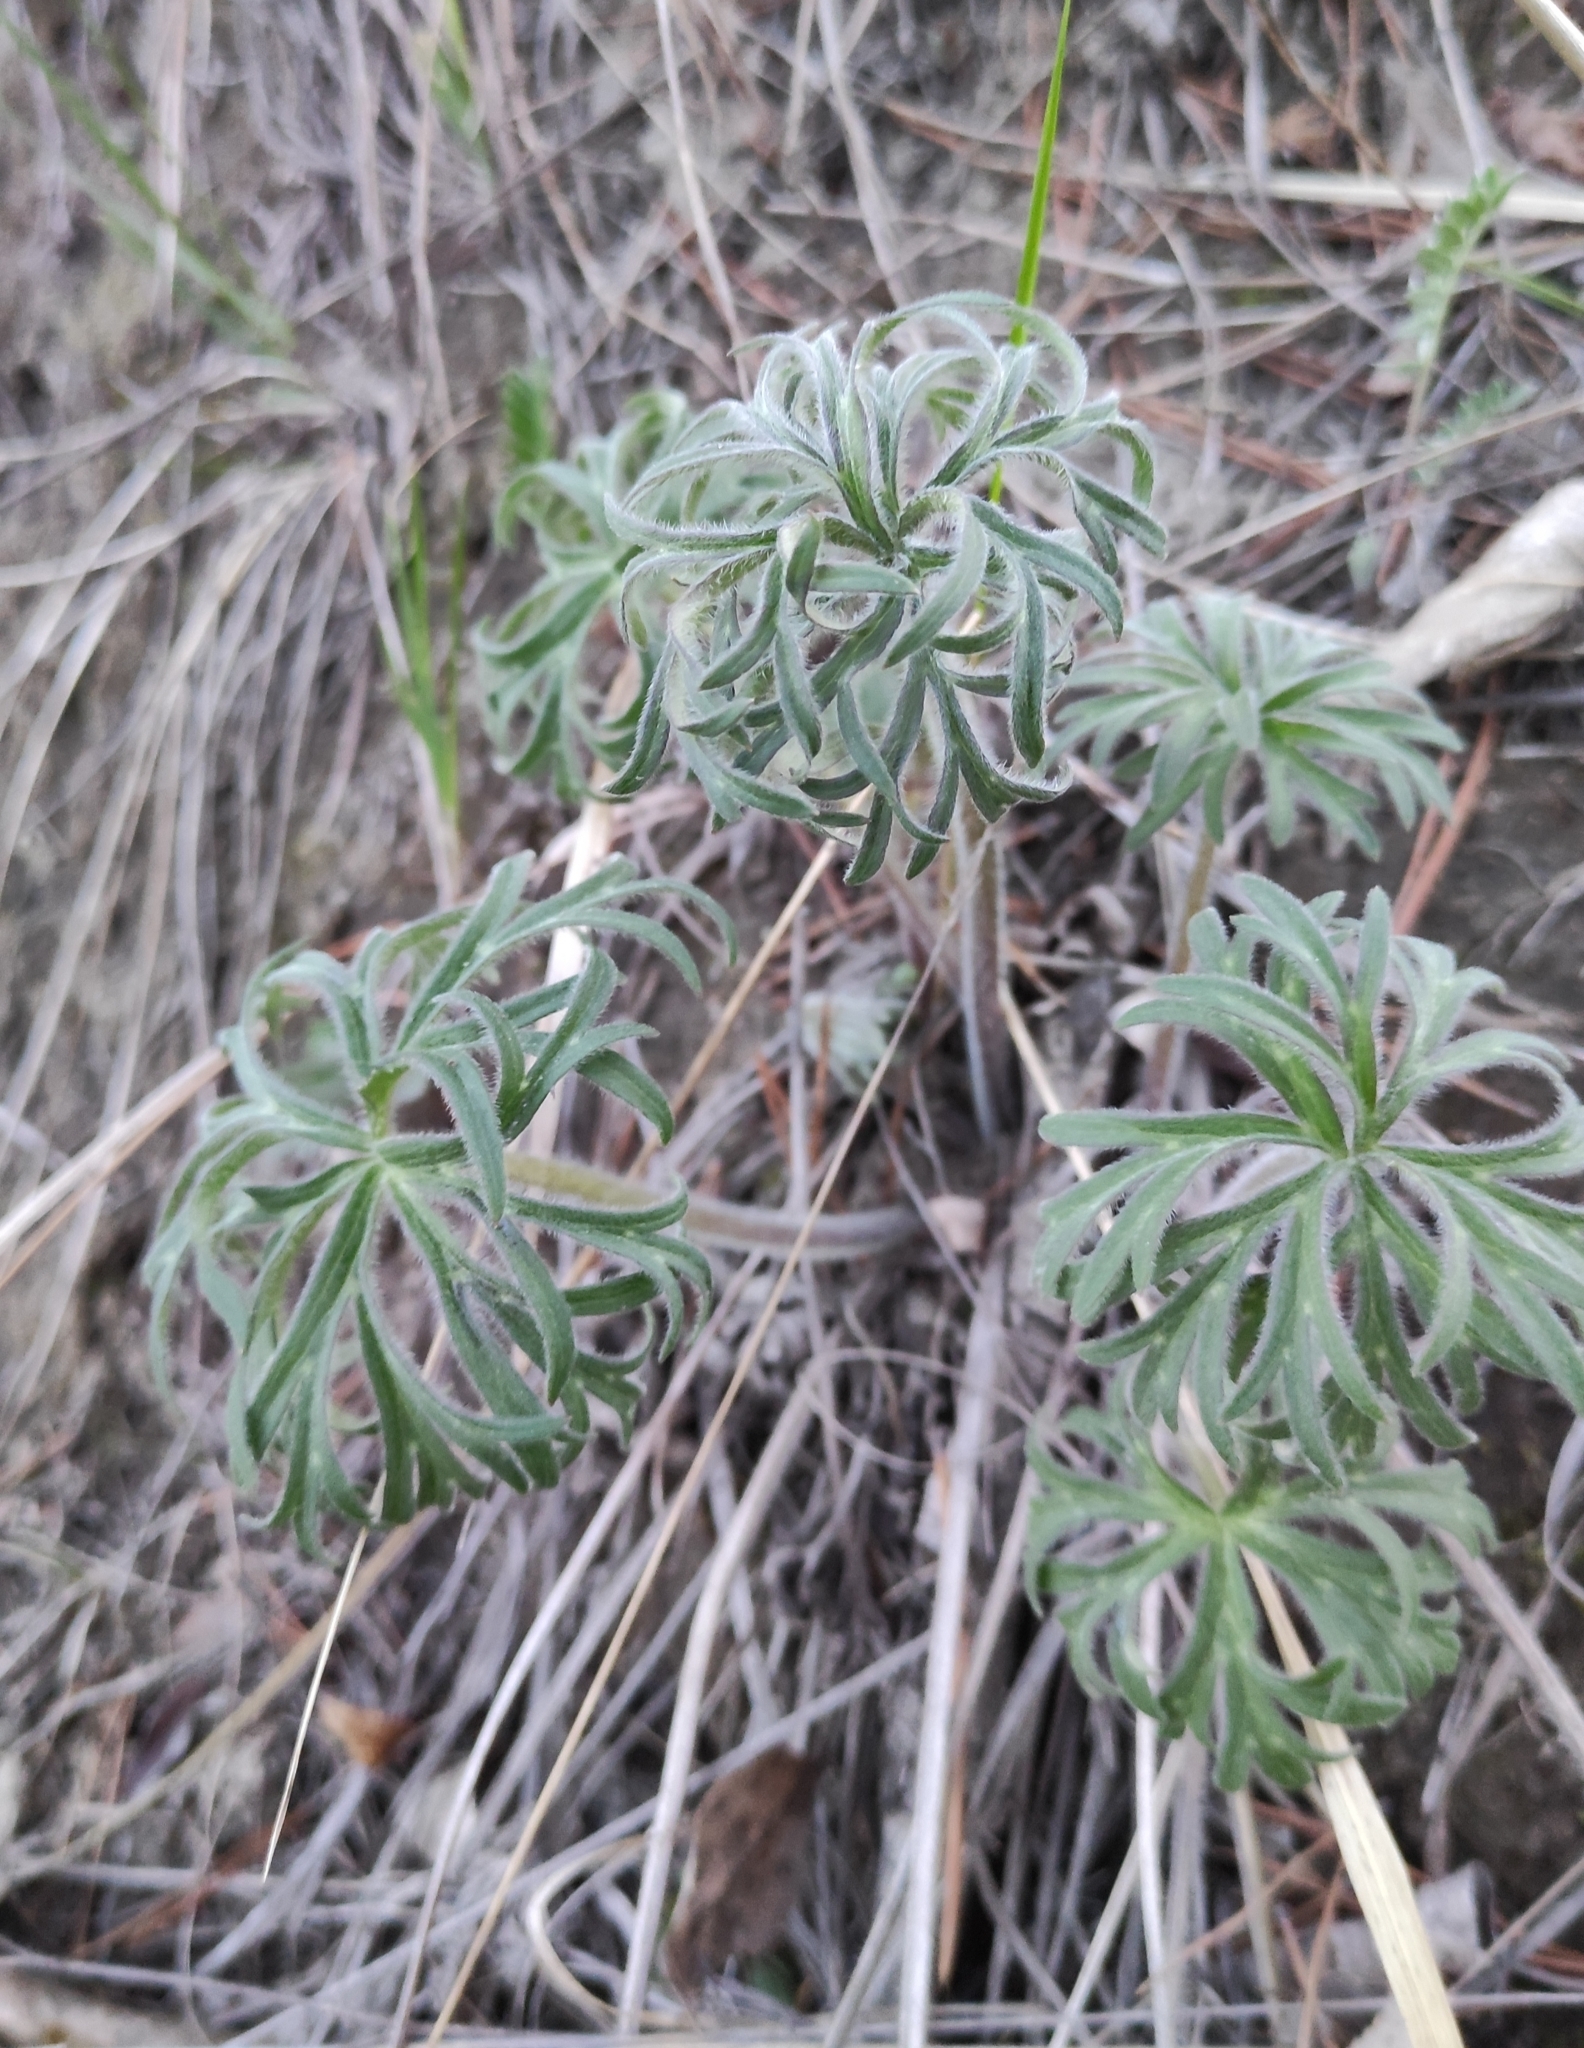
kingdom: Plantae
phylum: Tracheophyta
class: Magnoliopsida
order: Ranunculales
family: Ranunculaceae
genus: Anemonastrum
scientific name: Anemonastrum narcissiflorum
